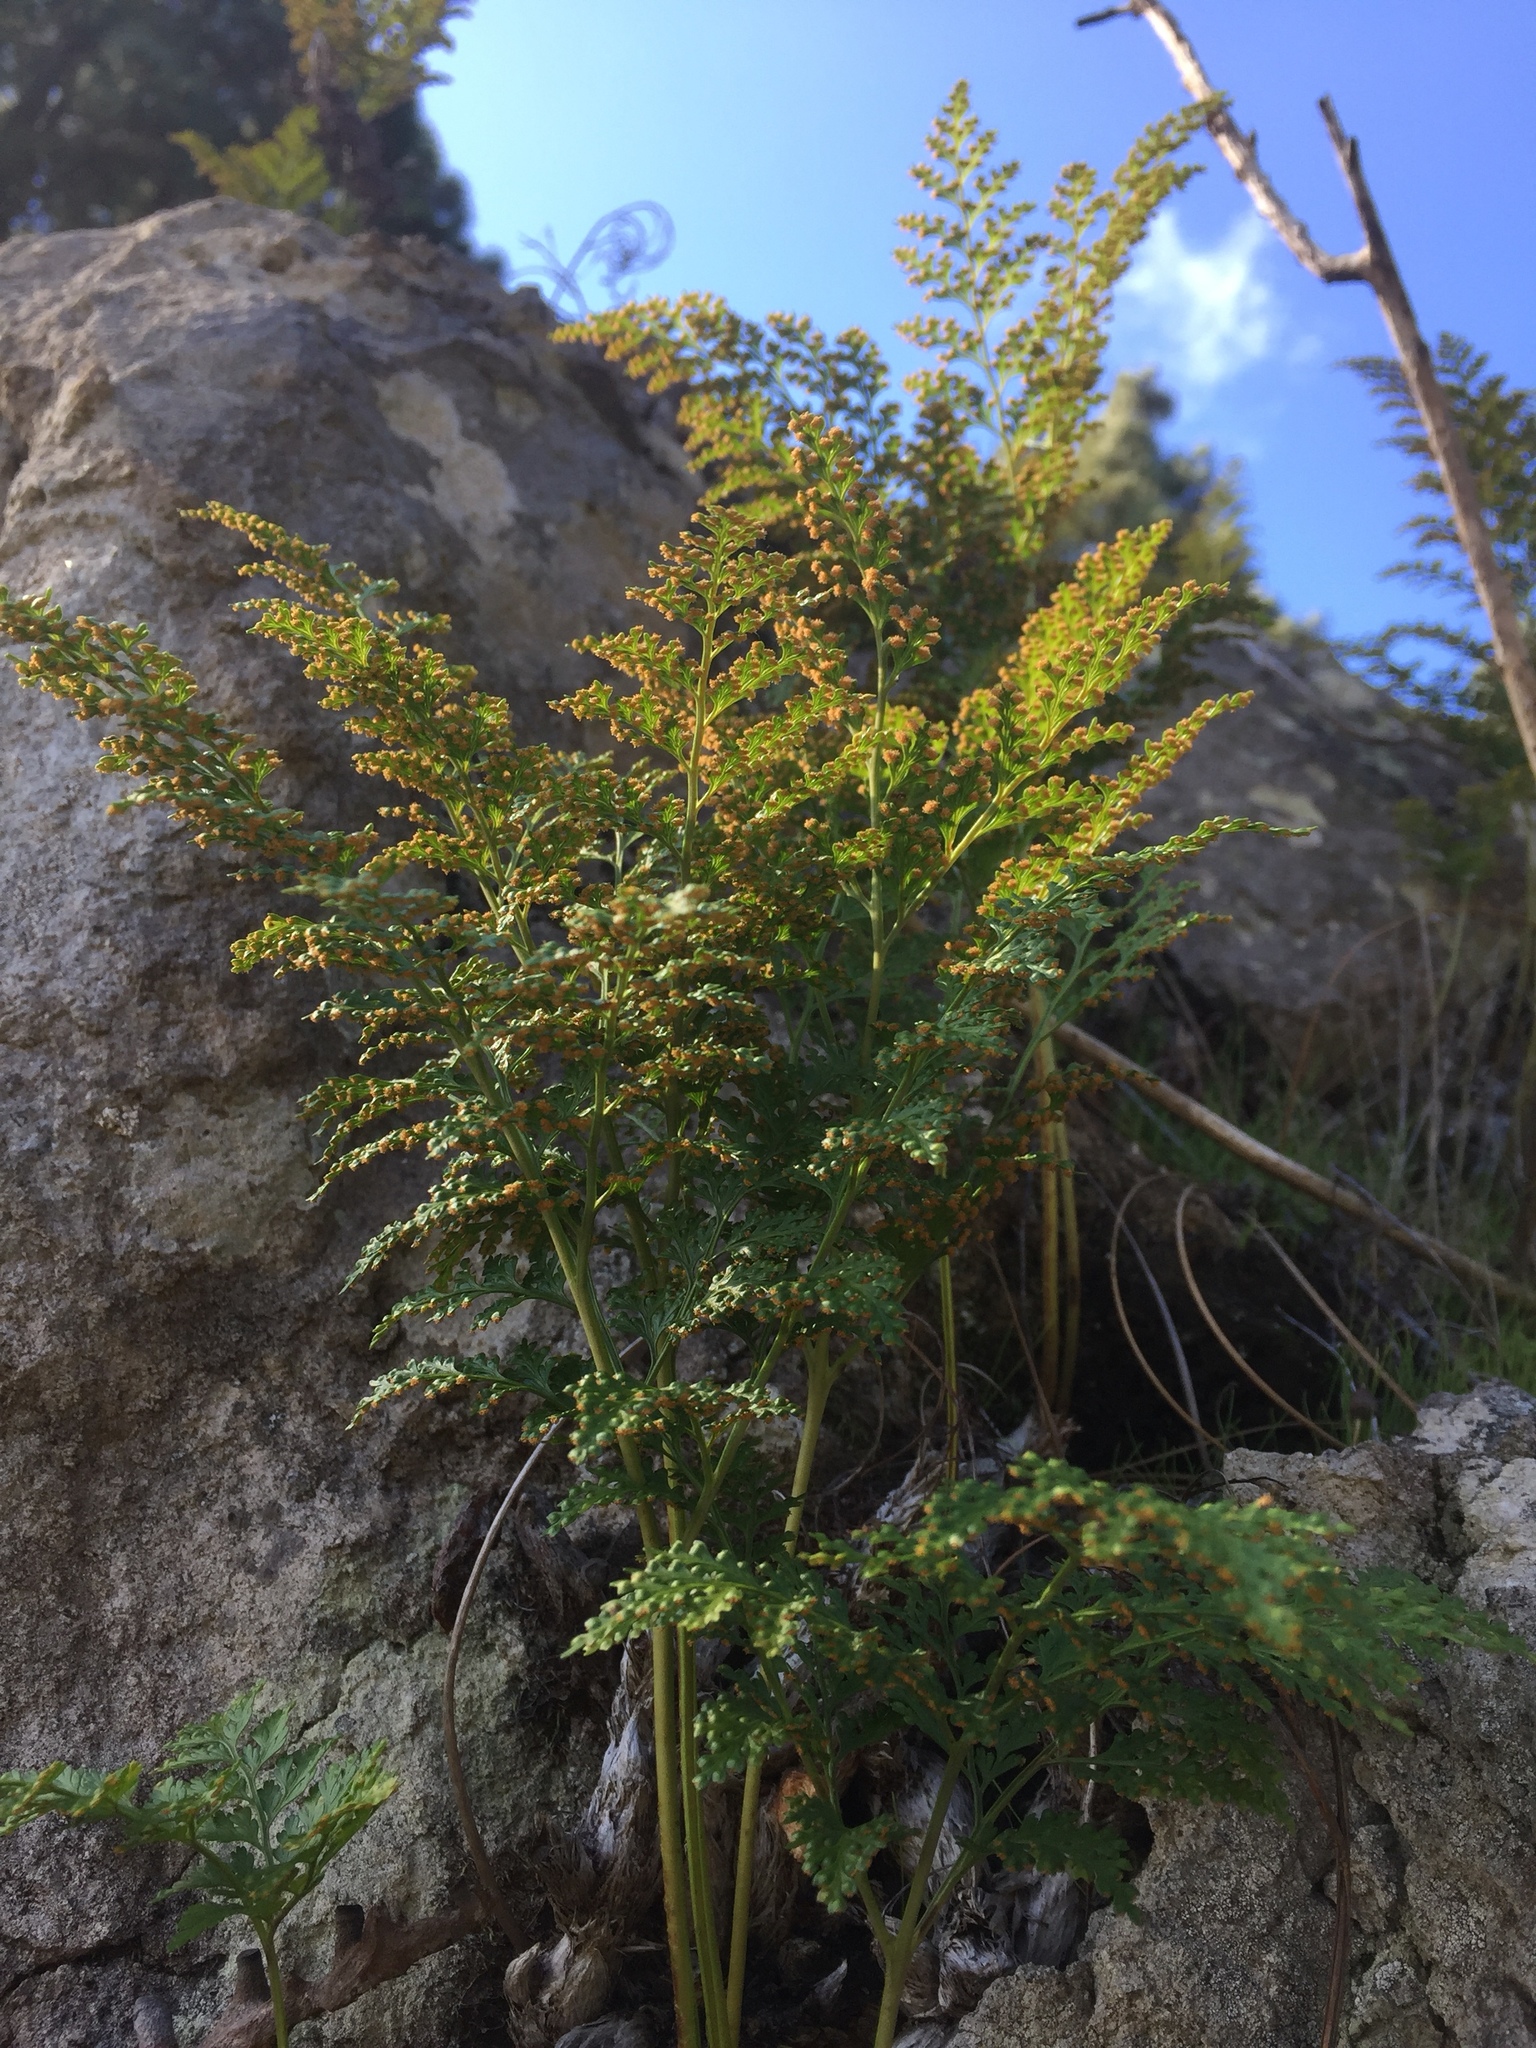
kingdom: Plantae
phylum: Tracheophyta
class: Polypodiopsida
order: Polypodiales
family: Davalliaceae
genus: Davallia
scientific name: Davallia canariensis
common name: Hare's-foot fern
